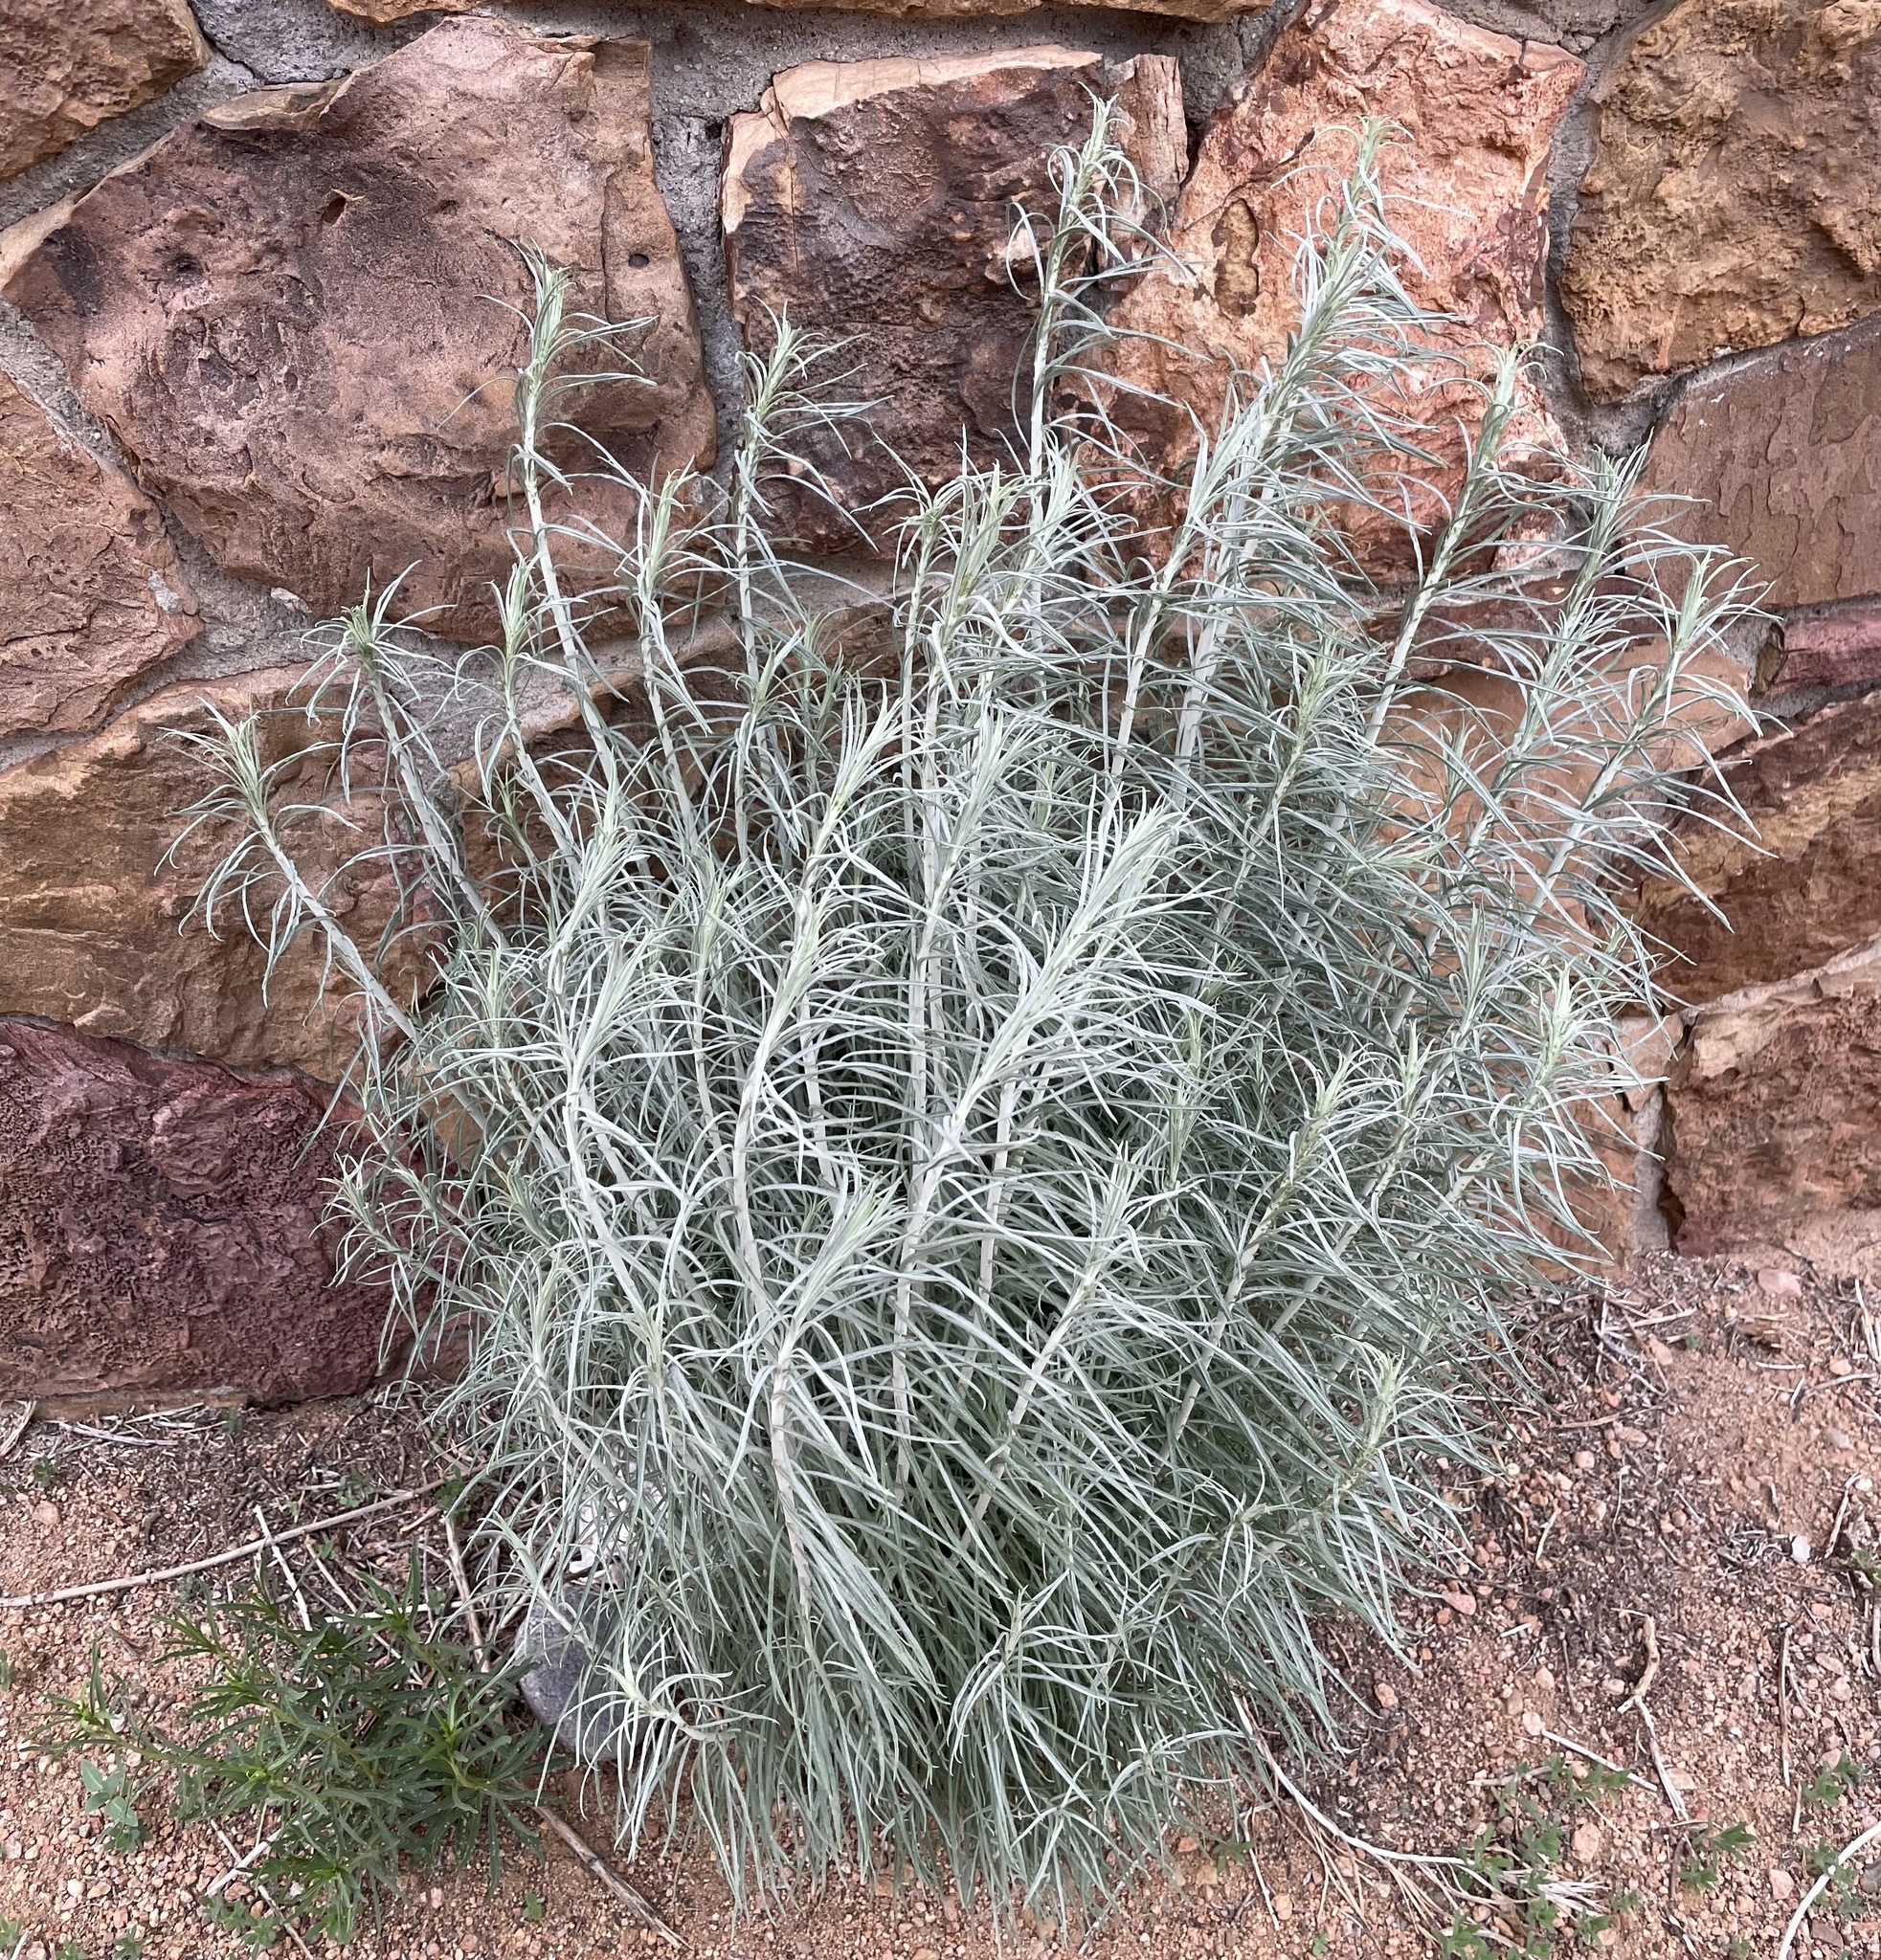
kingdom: Plantae
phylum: Tracheophyta
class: Magnoliopsida
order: Asterales
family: Asteraceae
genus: Ericameria
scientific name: Ericameria nauseosa
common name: Rubber rabbitbrush
